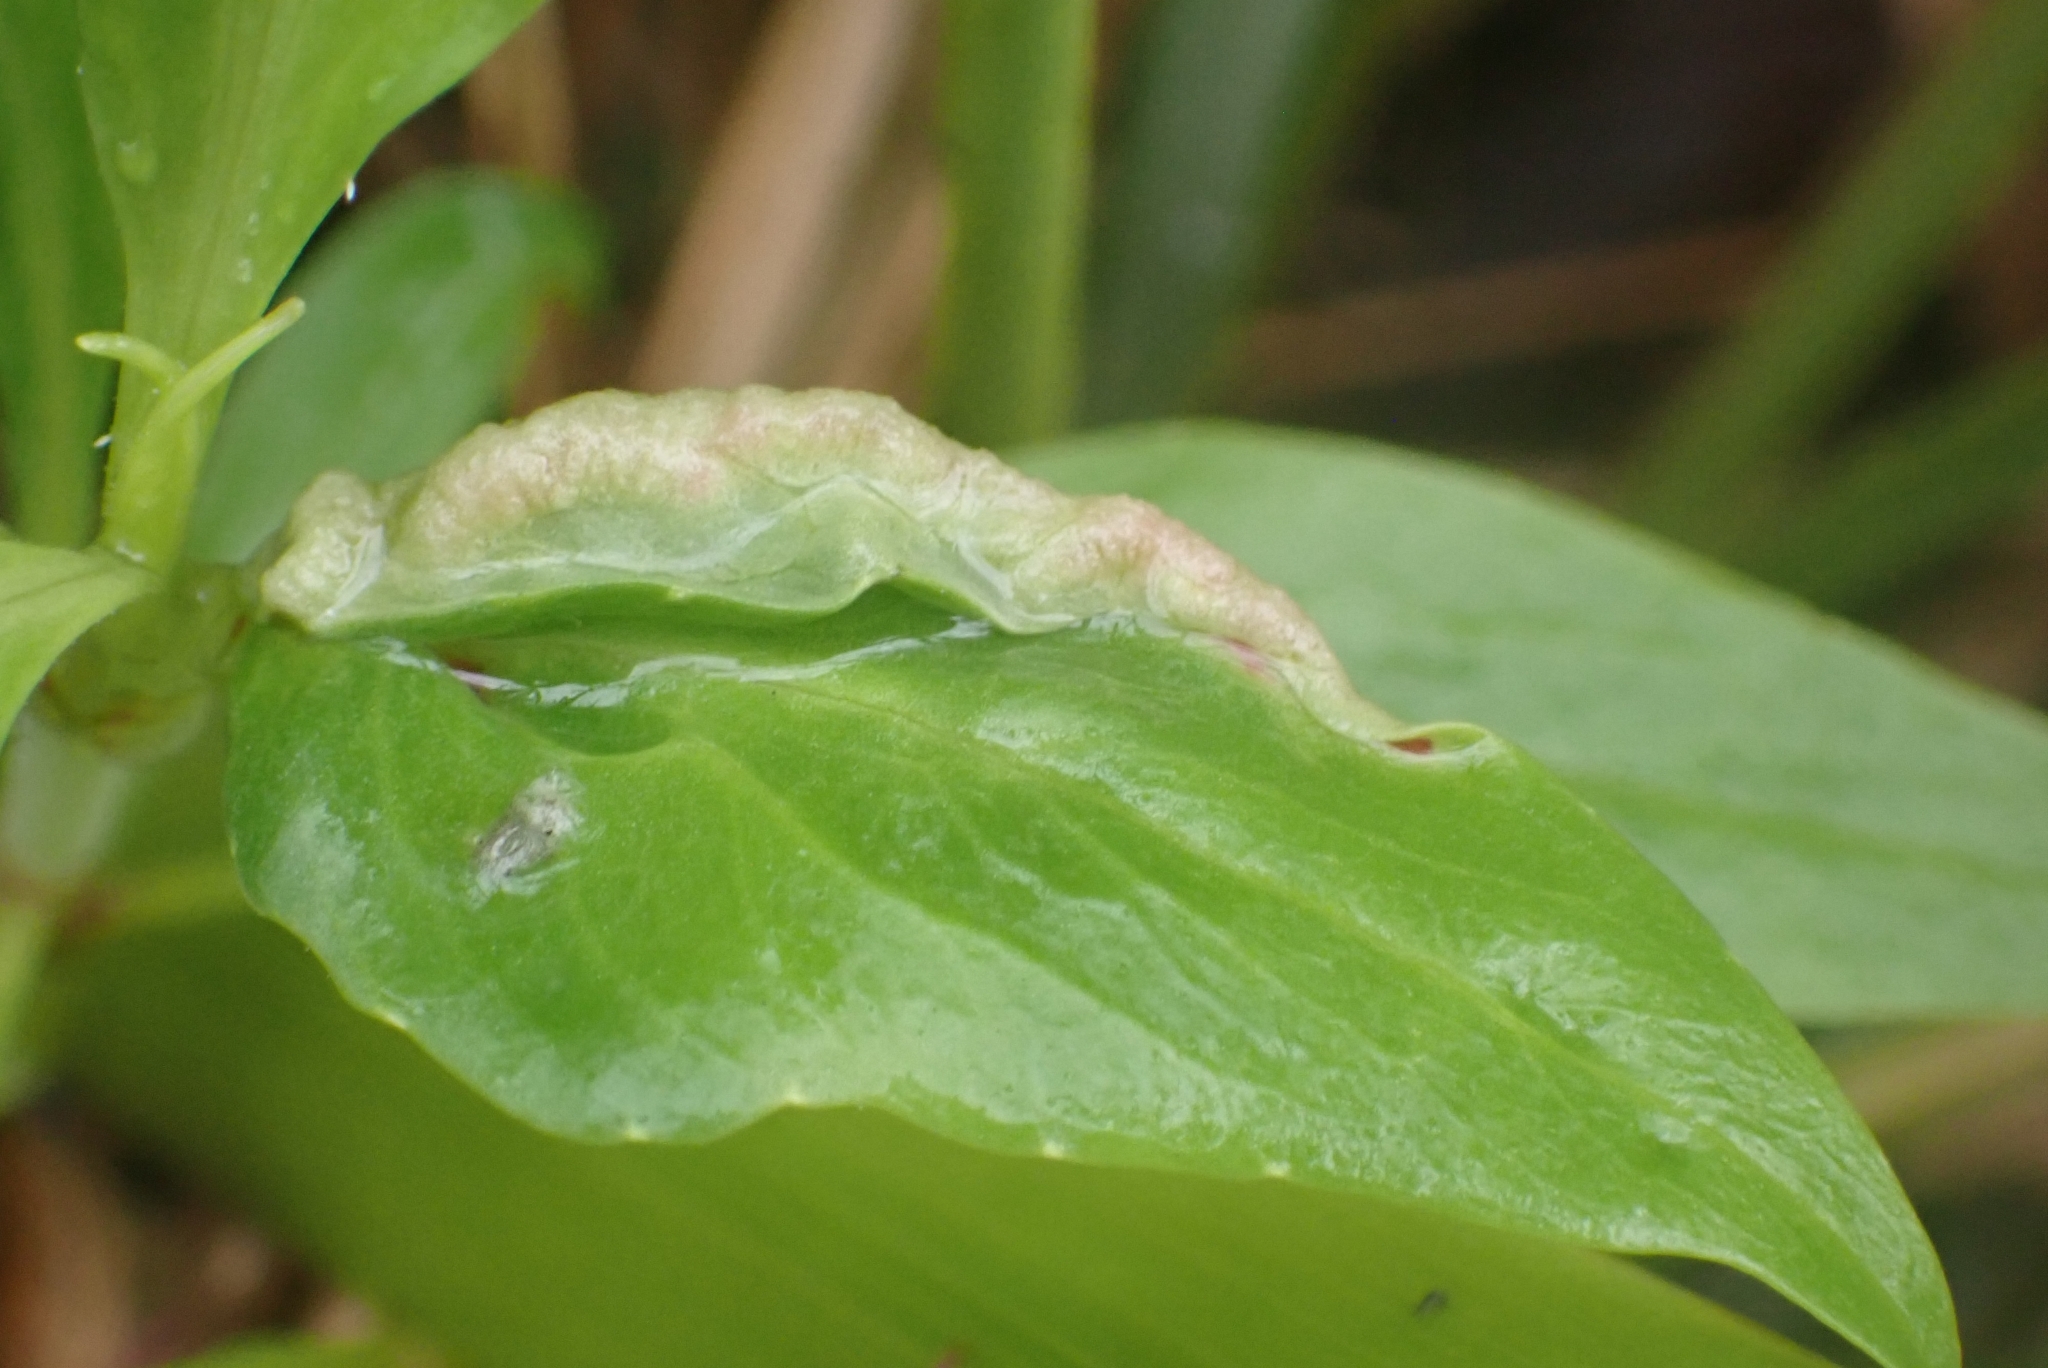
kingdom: Animalia
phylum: Arthropoda
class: Insecta
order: Hemiptera
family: Triozidae
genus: Trioza
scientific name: Trioza centranthi
